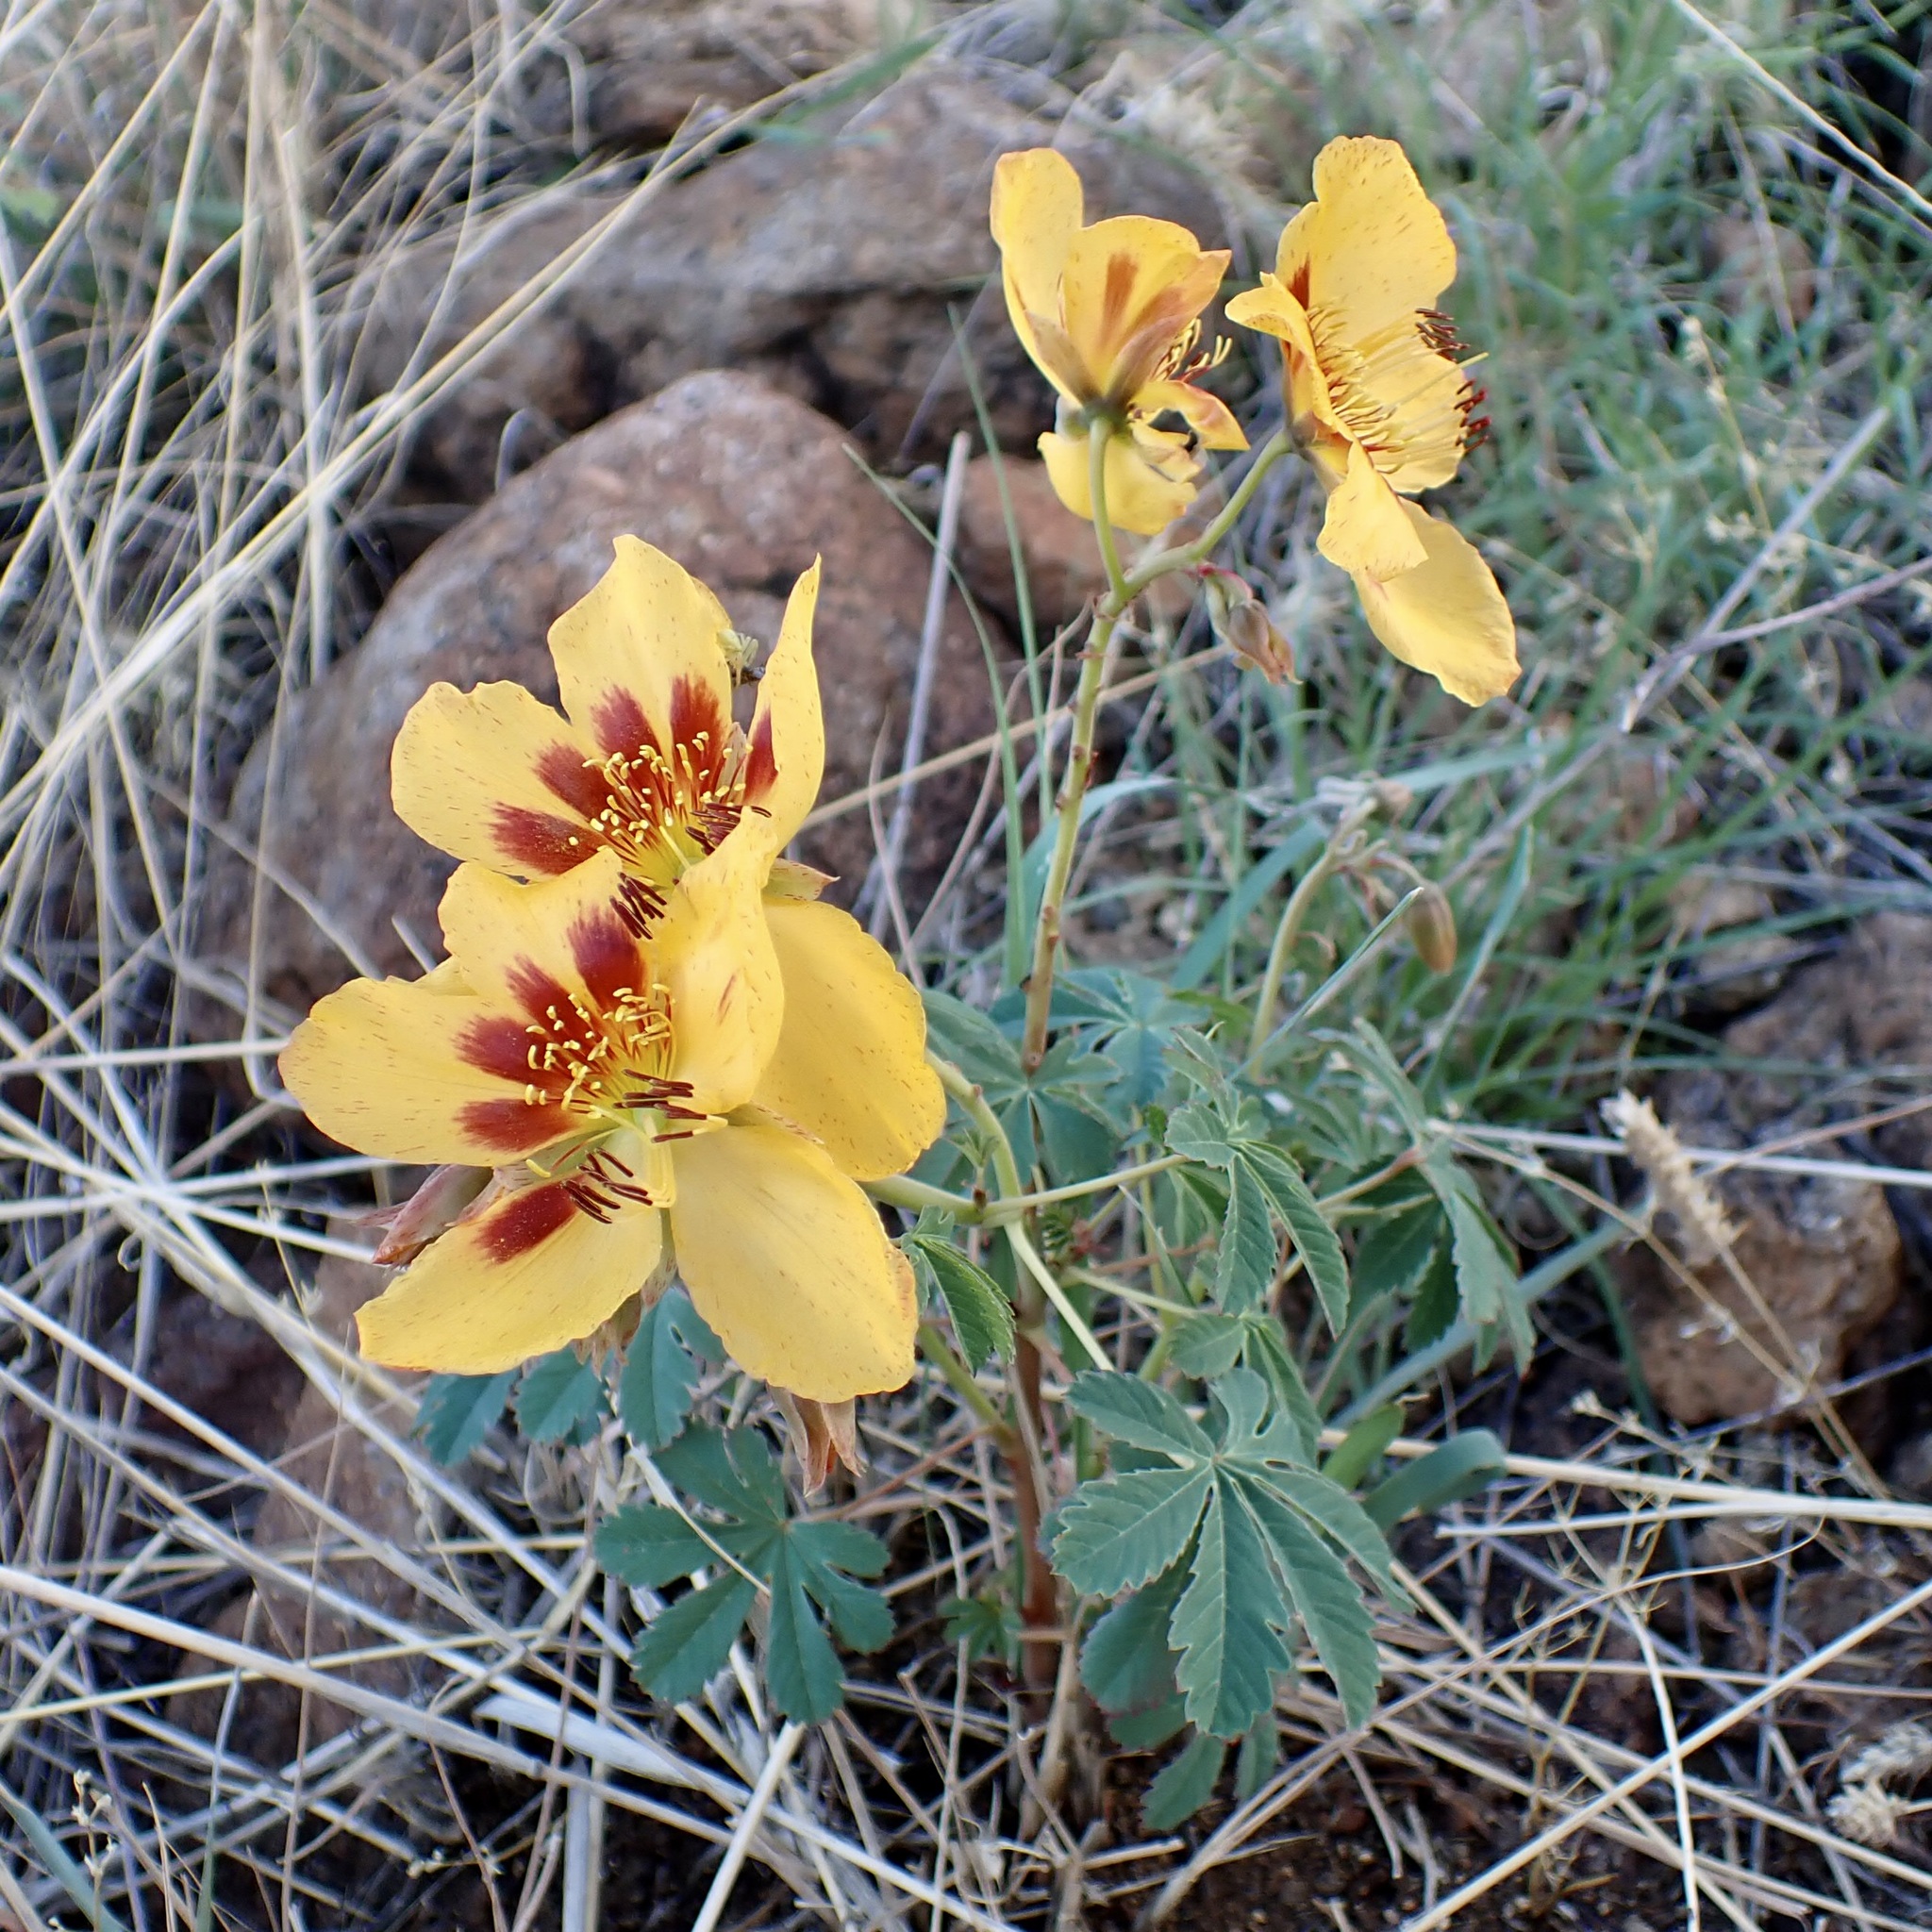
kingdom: Plantae
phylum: Tracheophyta
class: Magnoliopsida
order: Malvales
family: Cochlospermaceae
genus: Cochlospermum
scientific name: Cochlospermum palmatifidum
